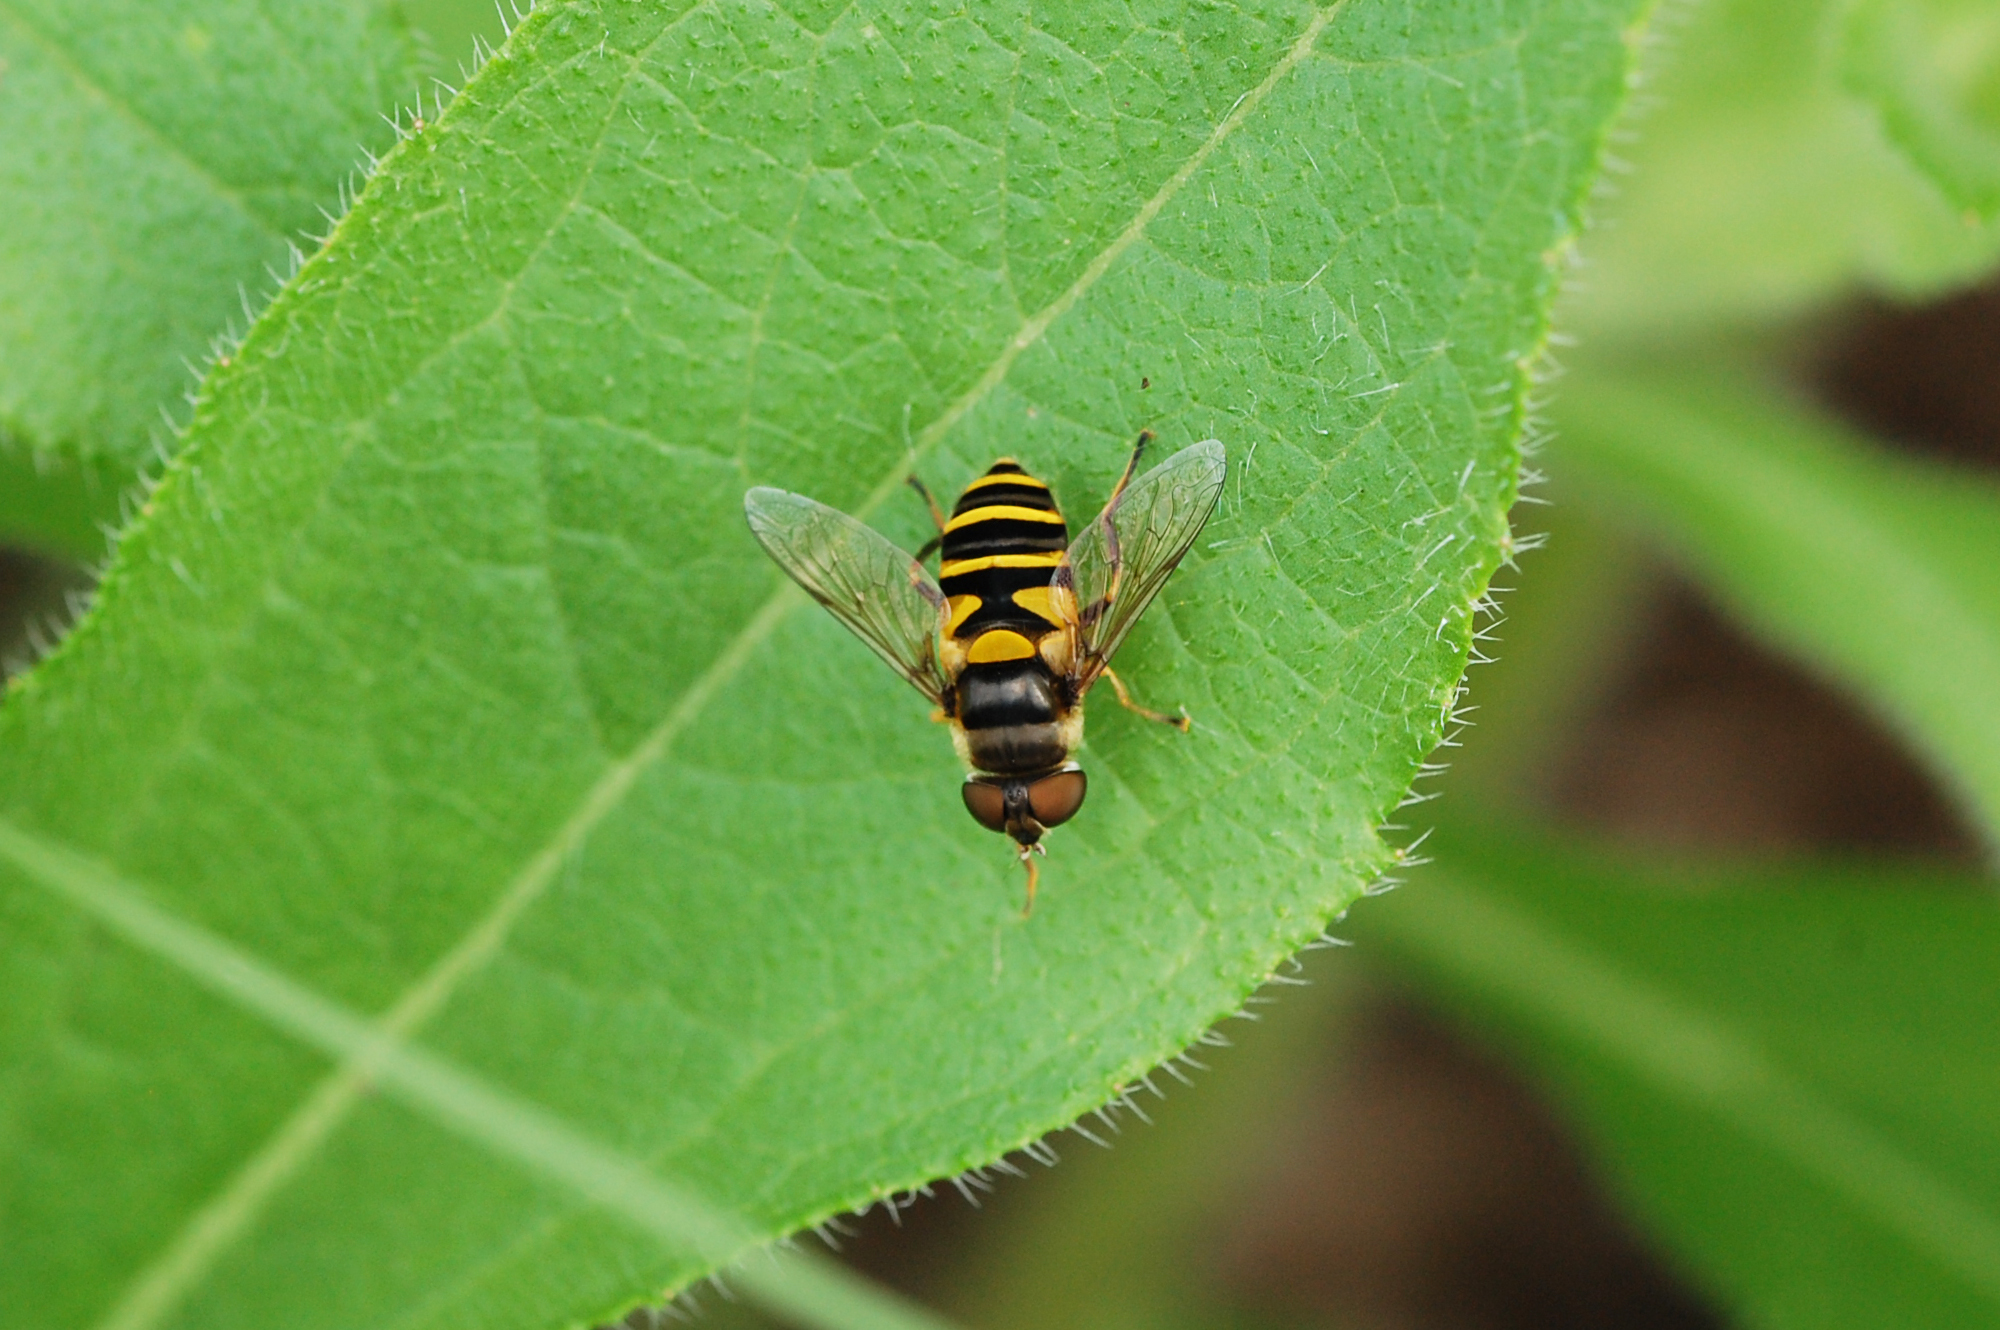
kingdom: Animalia
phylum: Arthropoda
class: Insecta
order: Diptera
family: Syrphidae
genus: Eristalis
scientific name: Eristalis transversa
